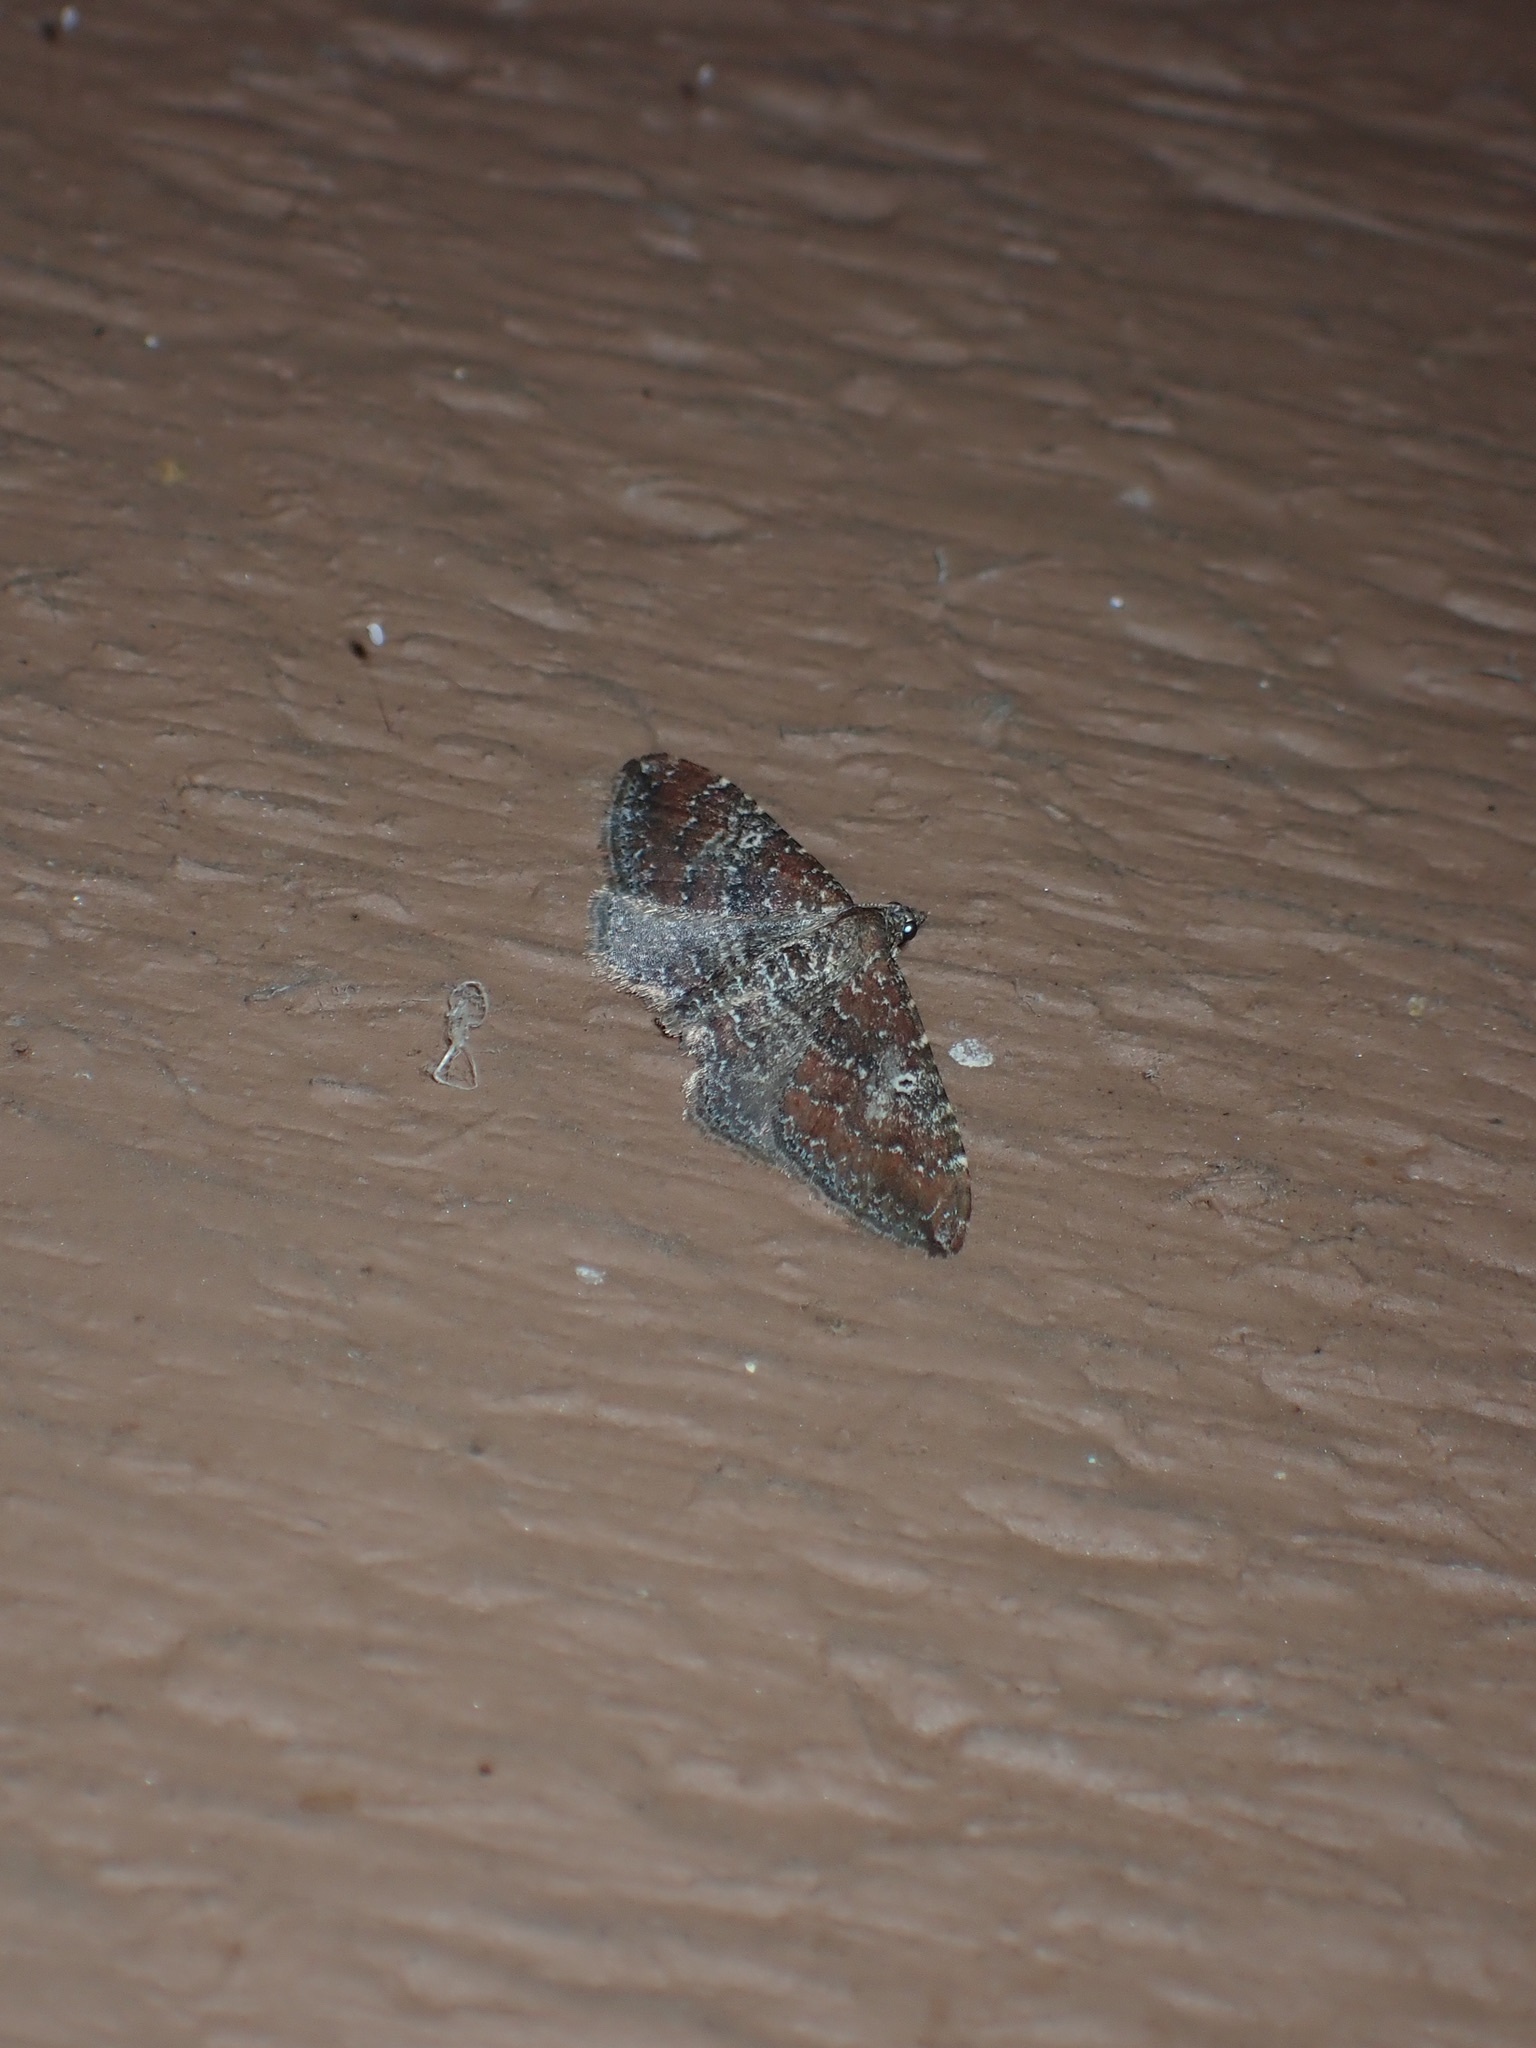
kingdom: Animalia
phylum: Arthropoda
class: Insecta
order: Lepidoptera
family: Geometridae
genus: Orthonama
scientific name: Orthonama obstipata
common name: The gem
